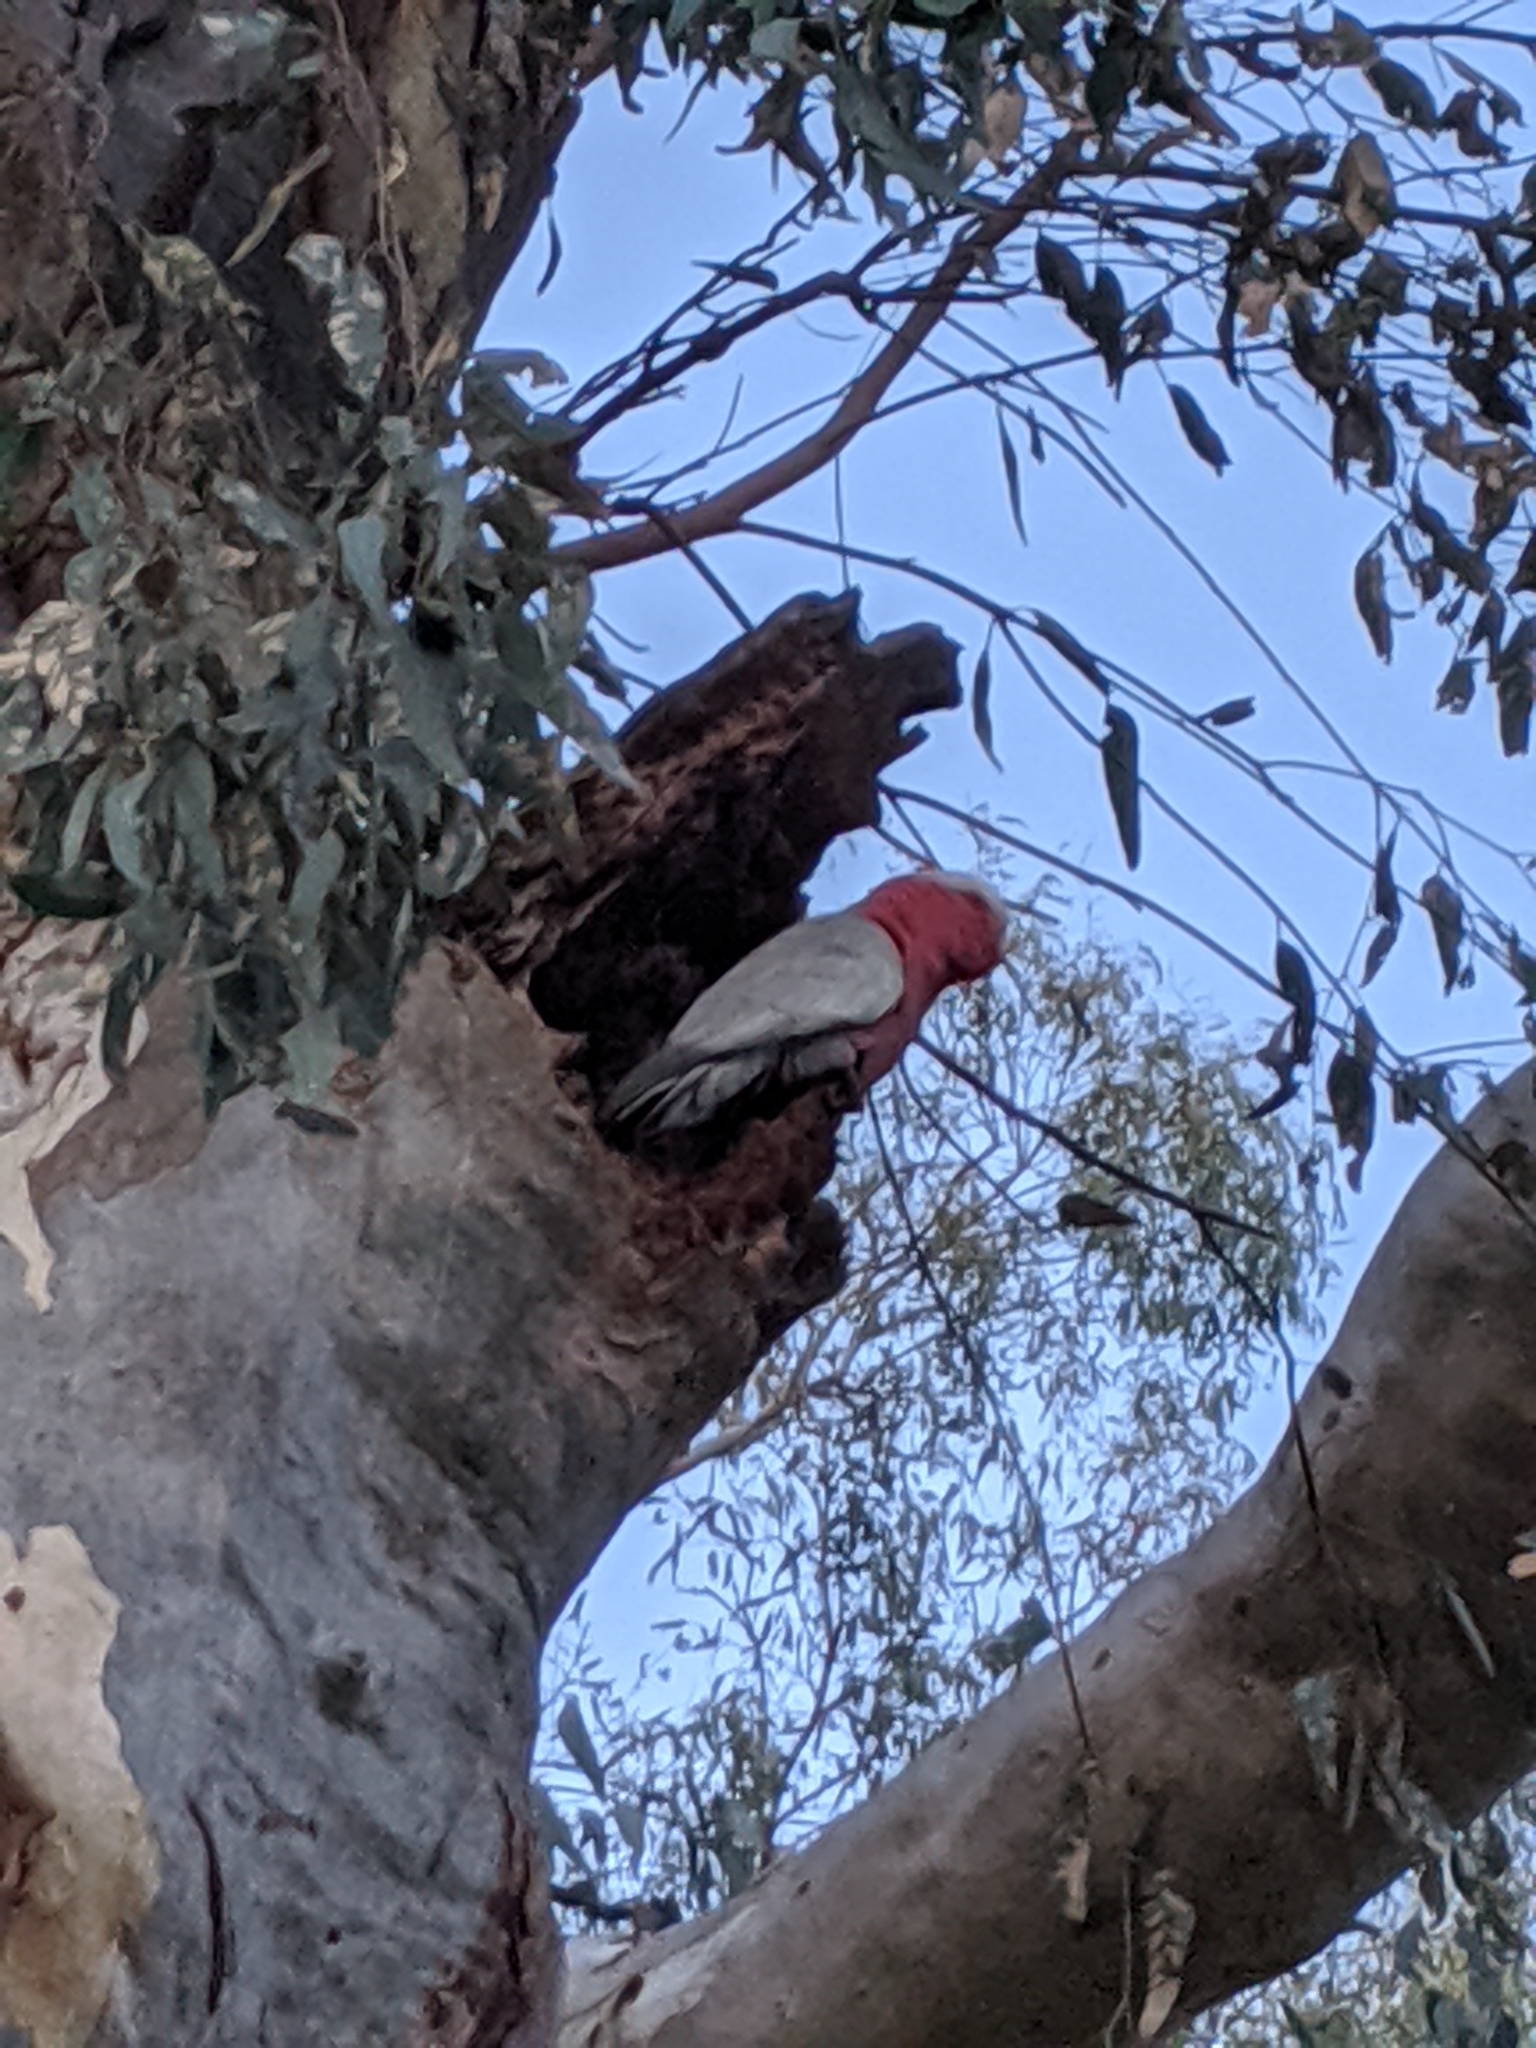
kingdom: Animalia
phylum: Chordata
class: Aves
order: Psittaciformes
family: Psittacidae
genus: Eolophus
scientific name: Eolophus roseicapilla
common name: Galah
